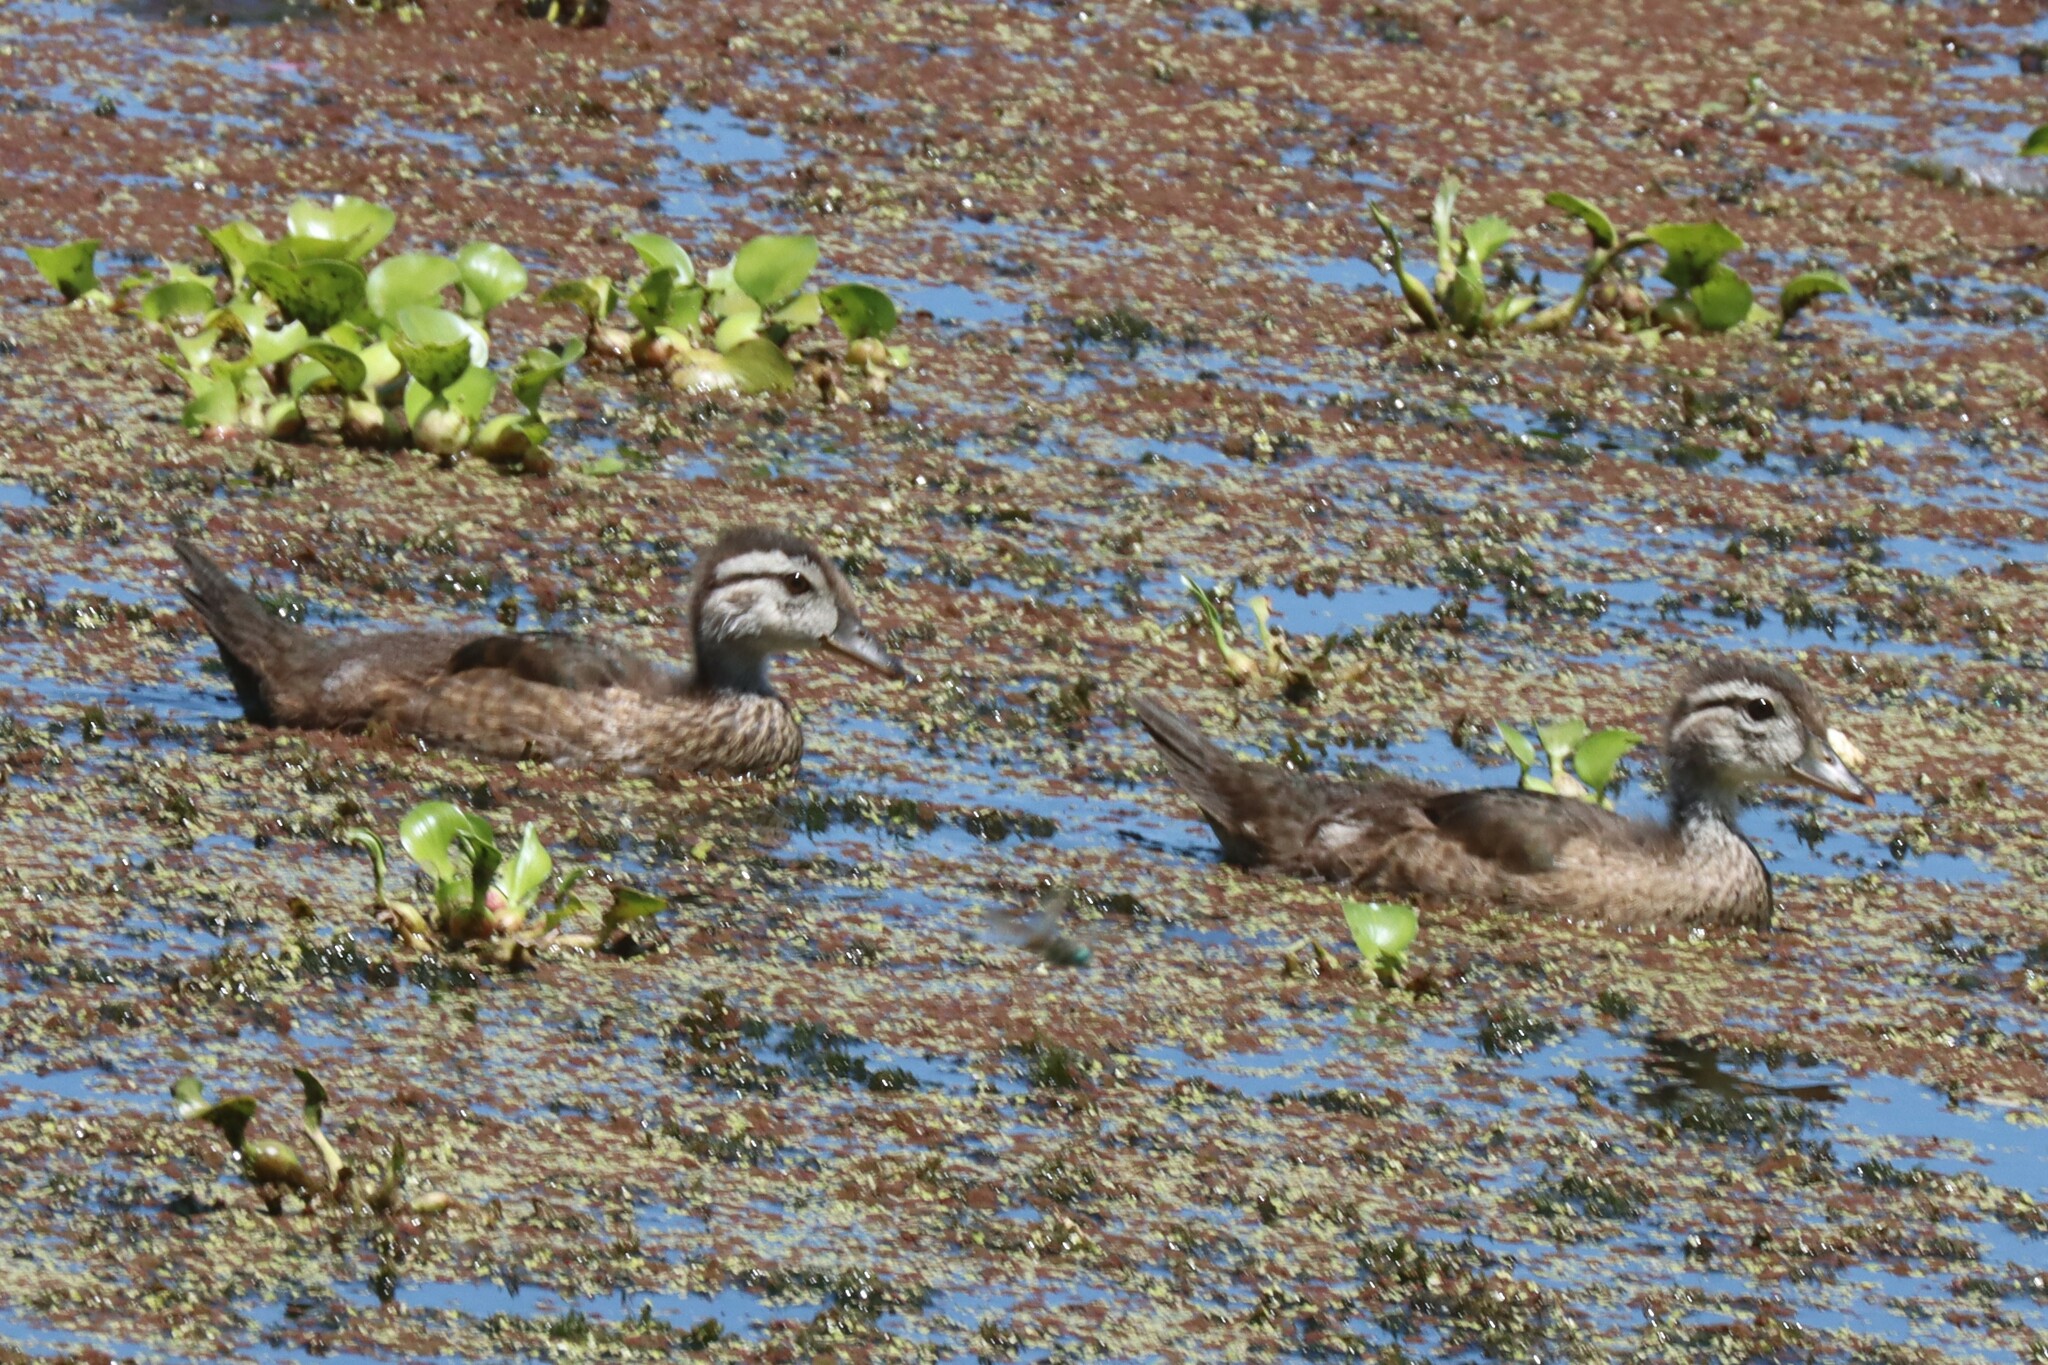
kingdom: Animalia
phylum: Chordata
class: Aves
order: Anseriformes
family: Anatidae
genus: Aix
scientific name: Aix sponsa
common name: Wood duck
